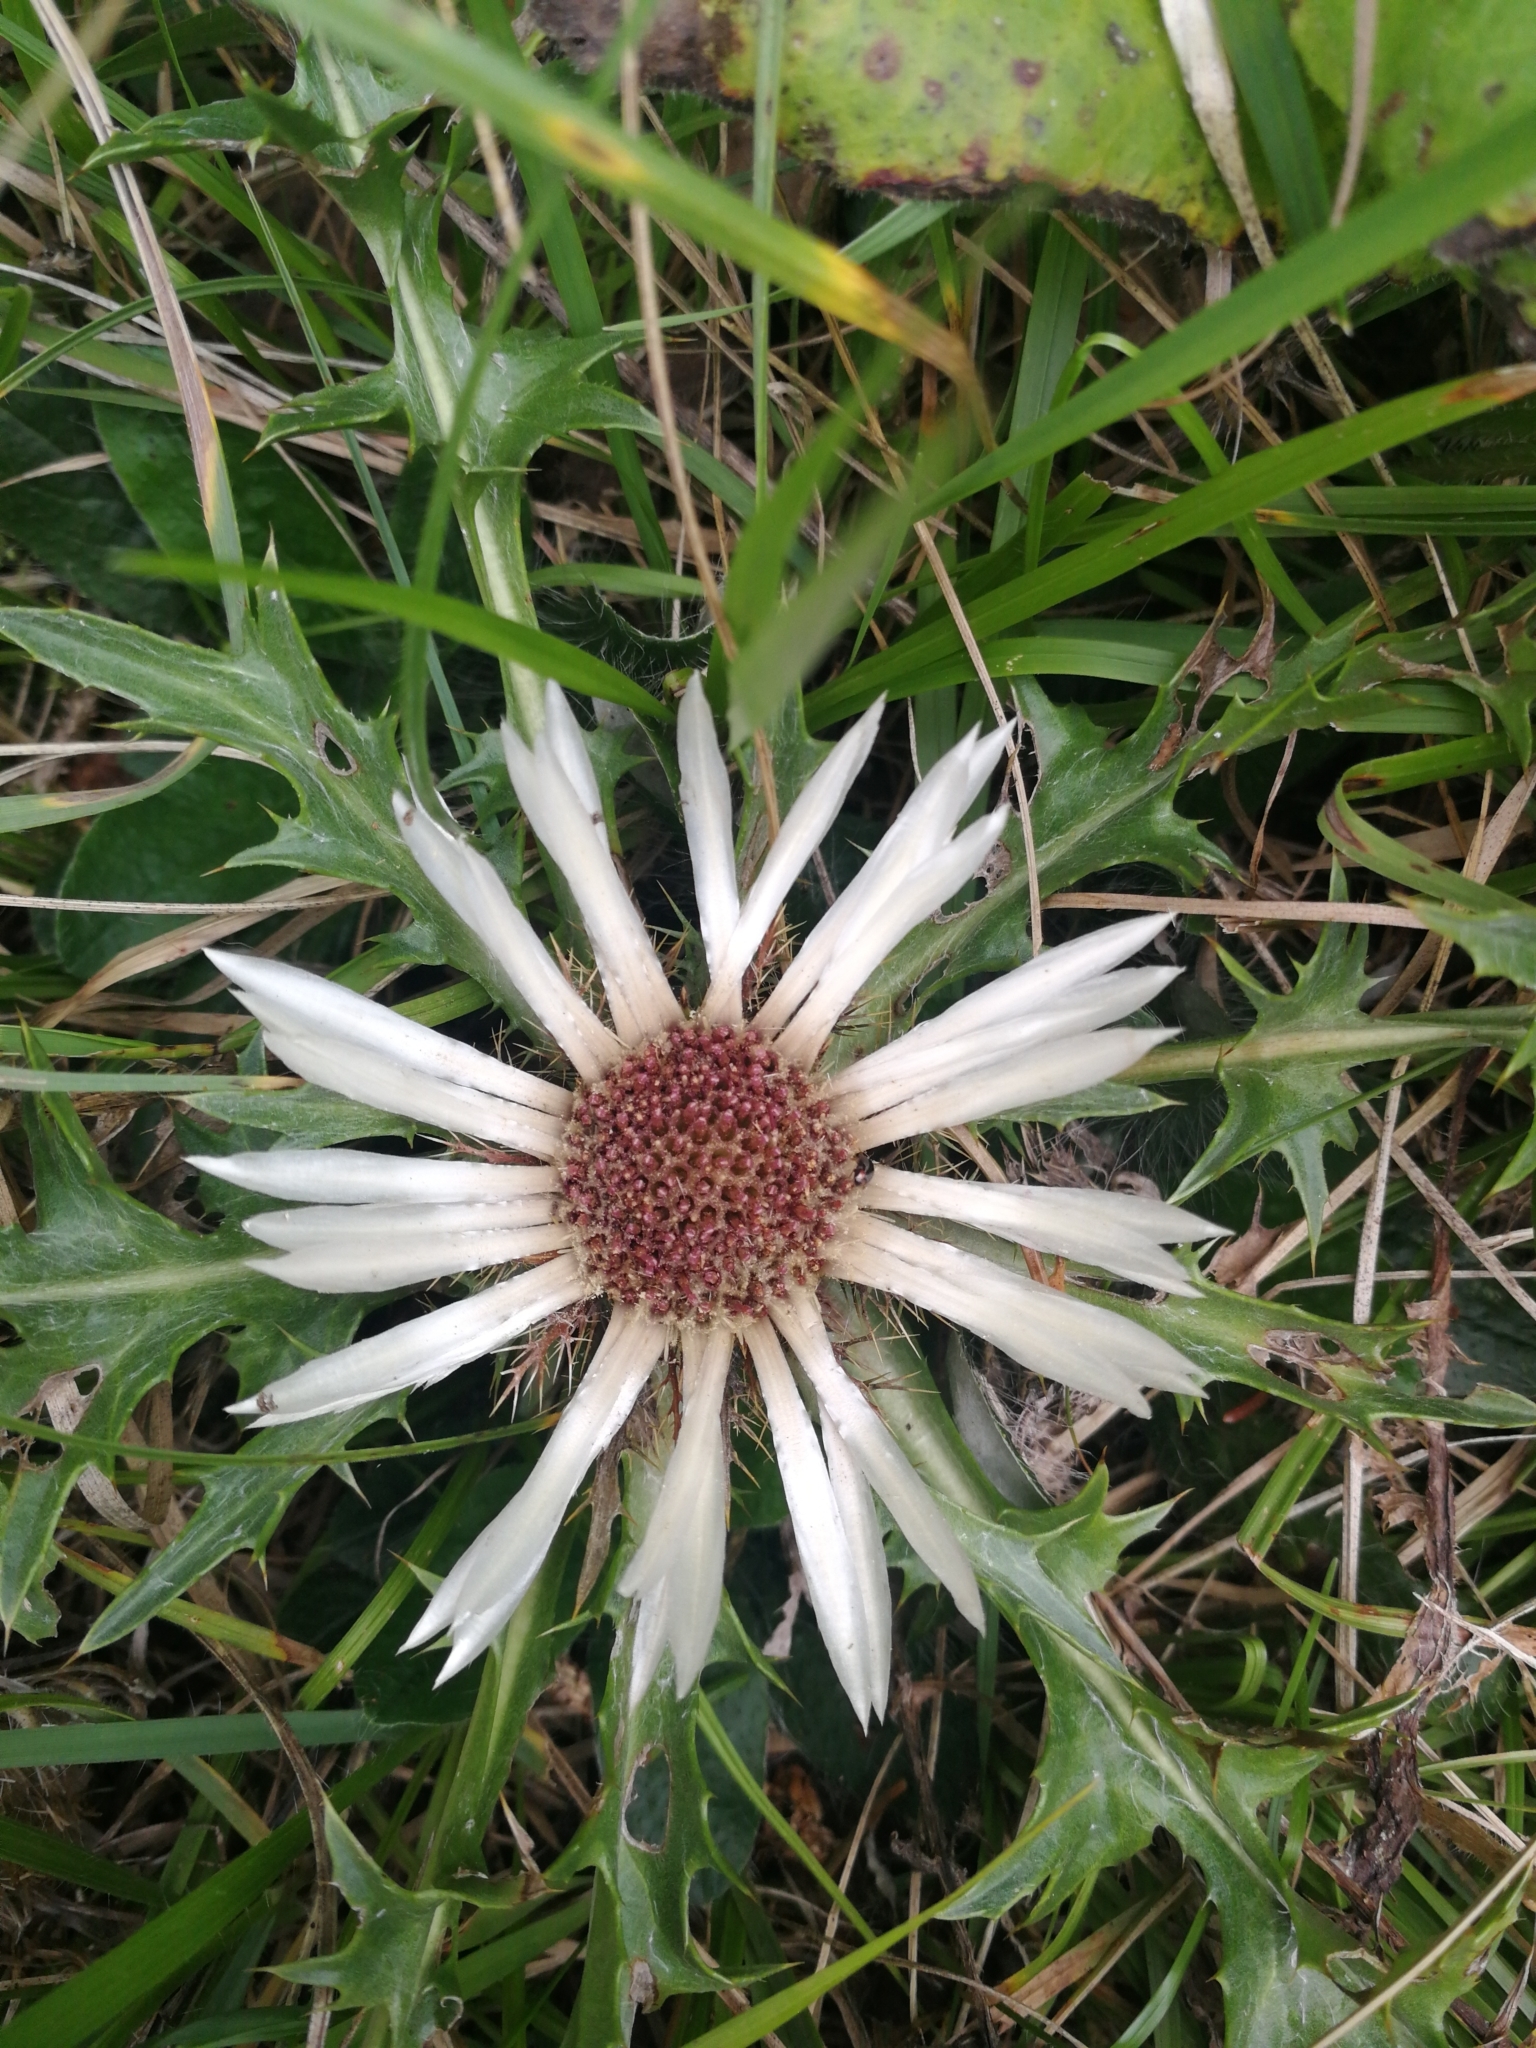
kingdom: Plantae
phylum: Tracheophyta
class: Magnoliopsida
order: Asterales
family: Asteraceae
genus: Carlina
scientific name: Carlina acaulis
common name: Stemless carline thistle
